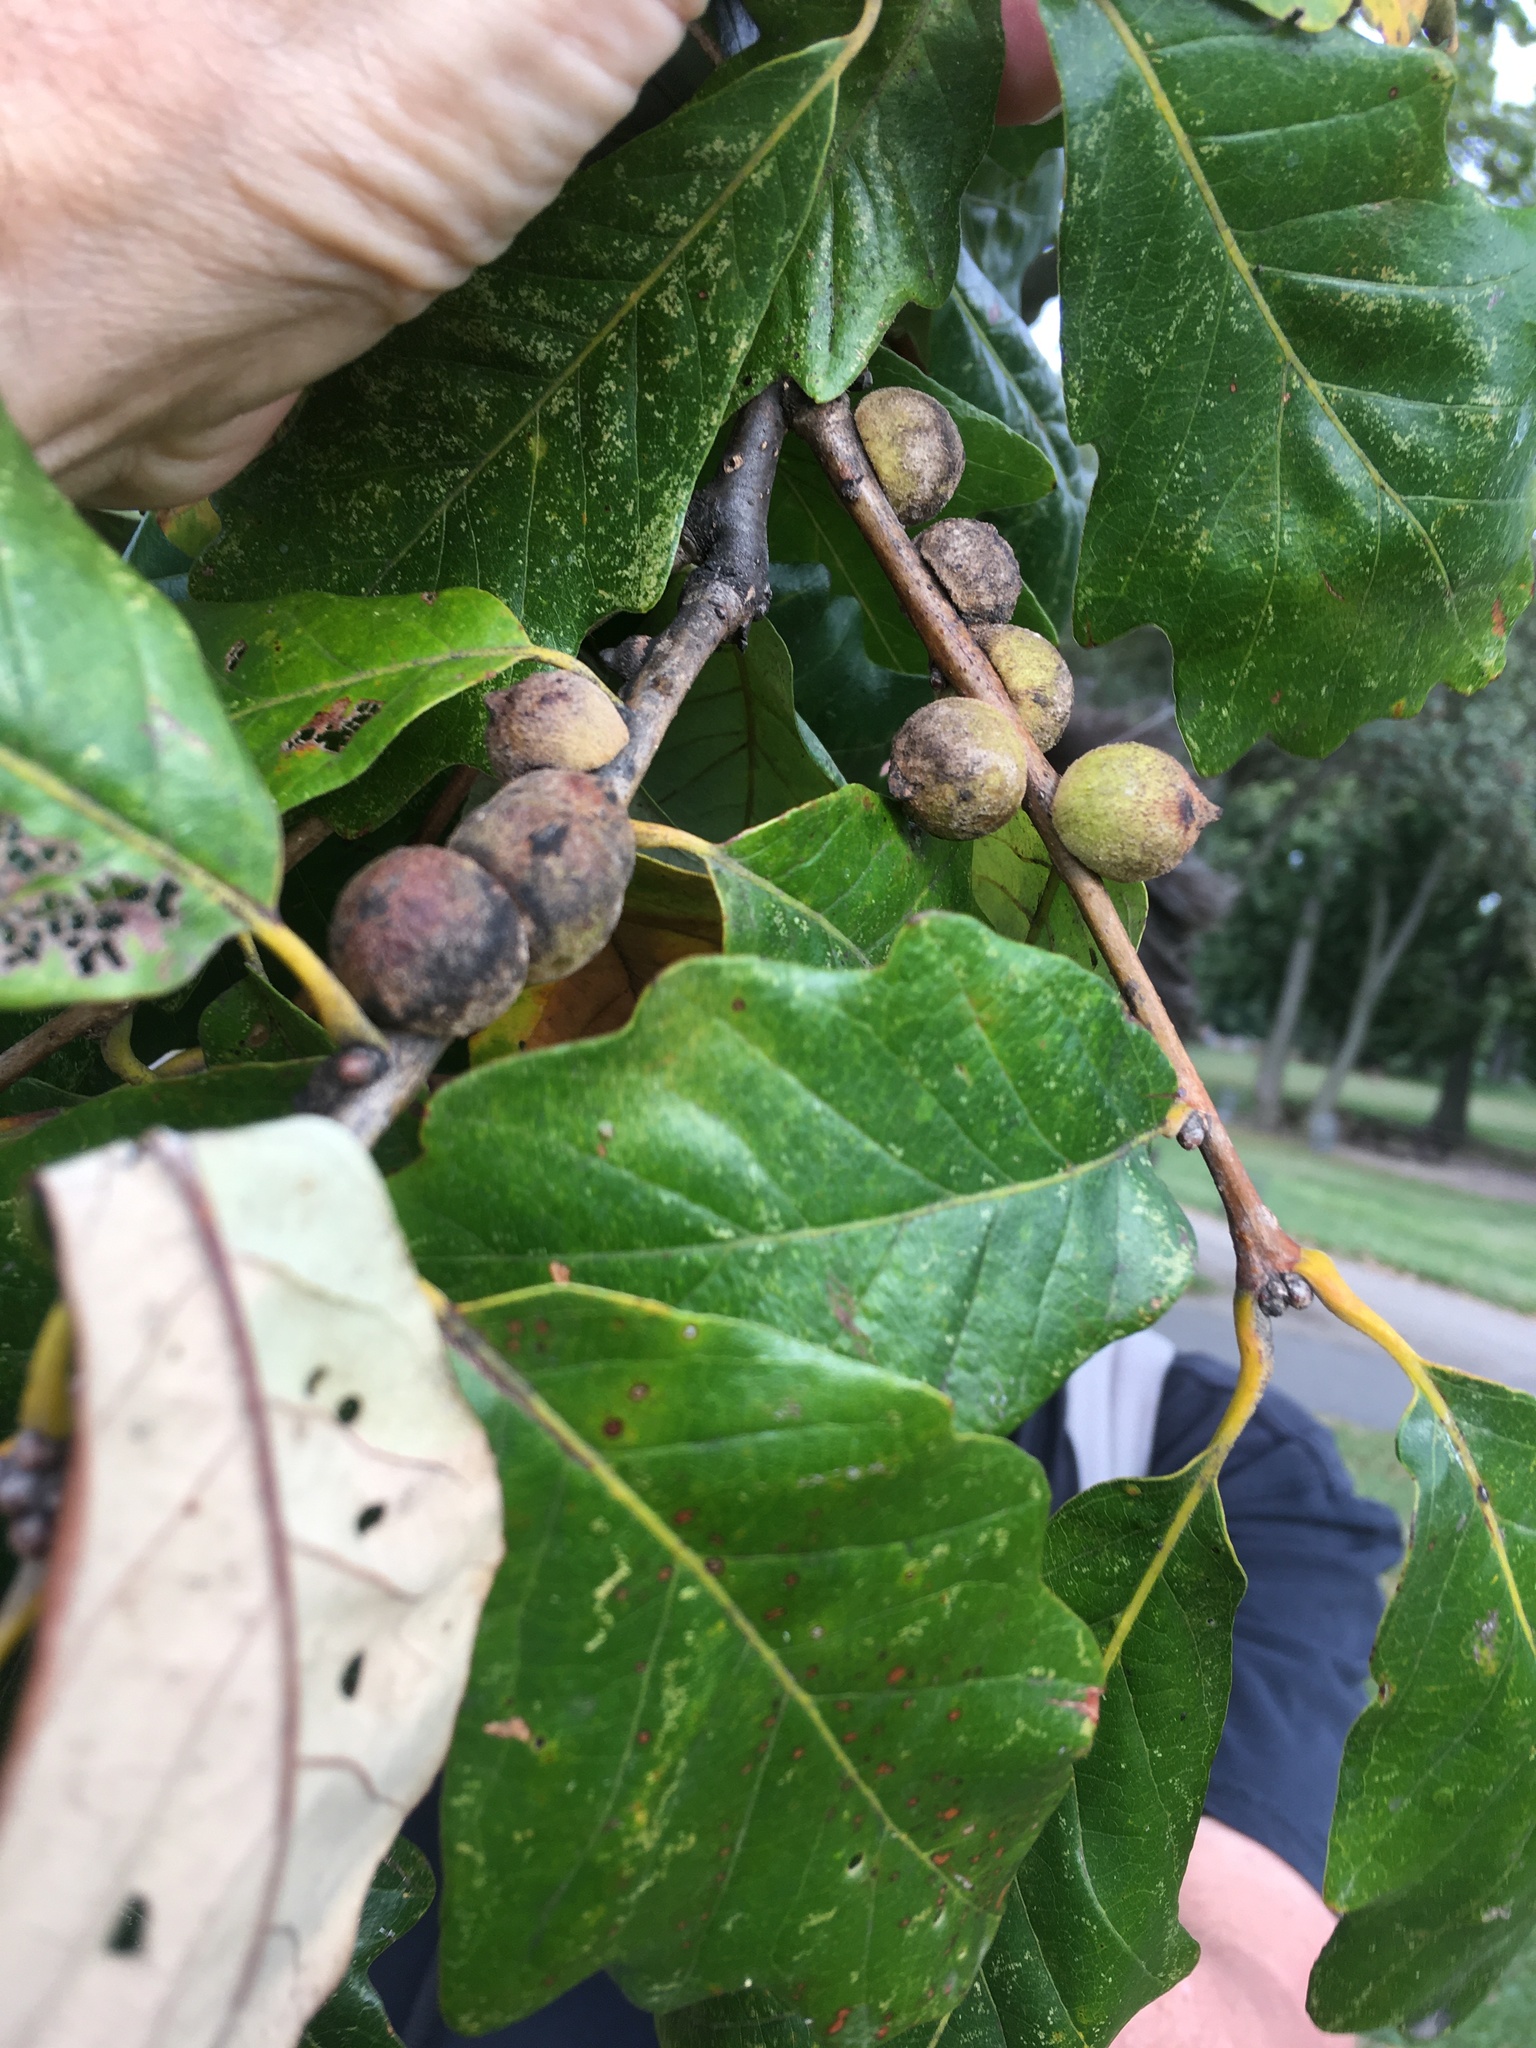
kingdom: Animalia
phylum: Arthropoda
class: Insecta
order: Hymenoptera
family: Cynipidae
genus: Disholcaspis
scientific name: Disholcaspis
